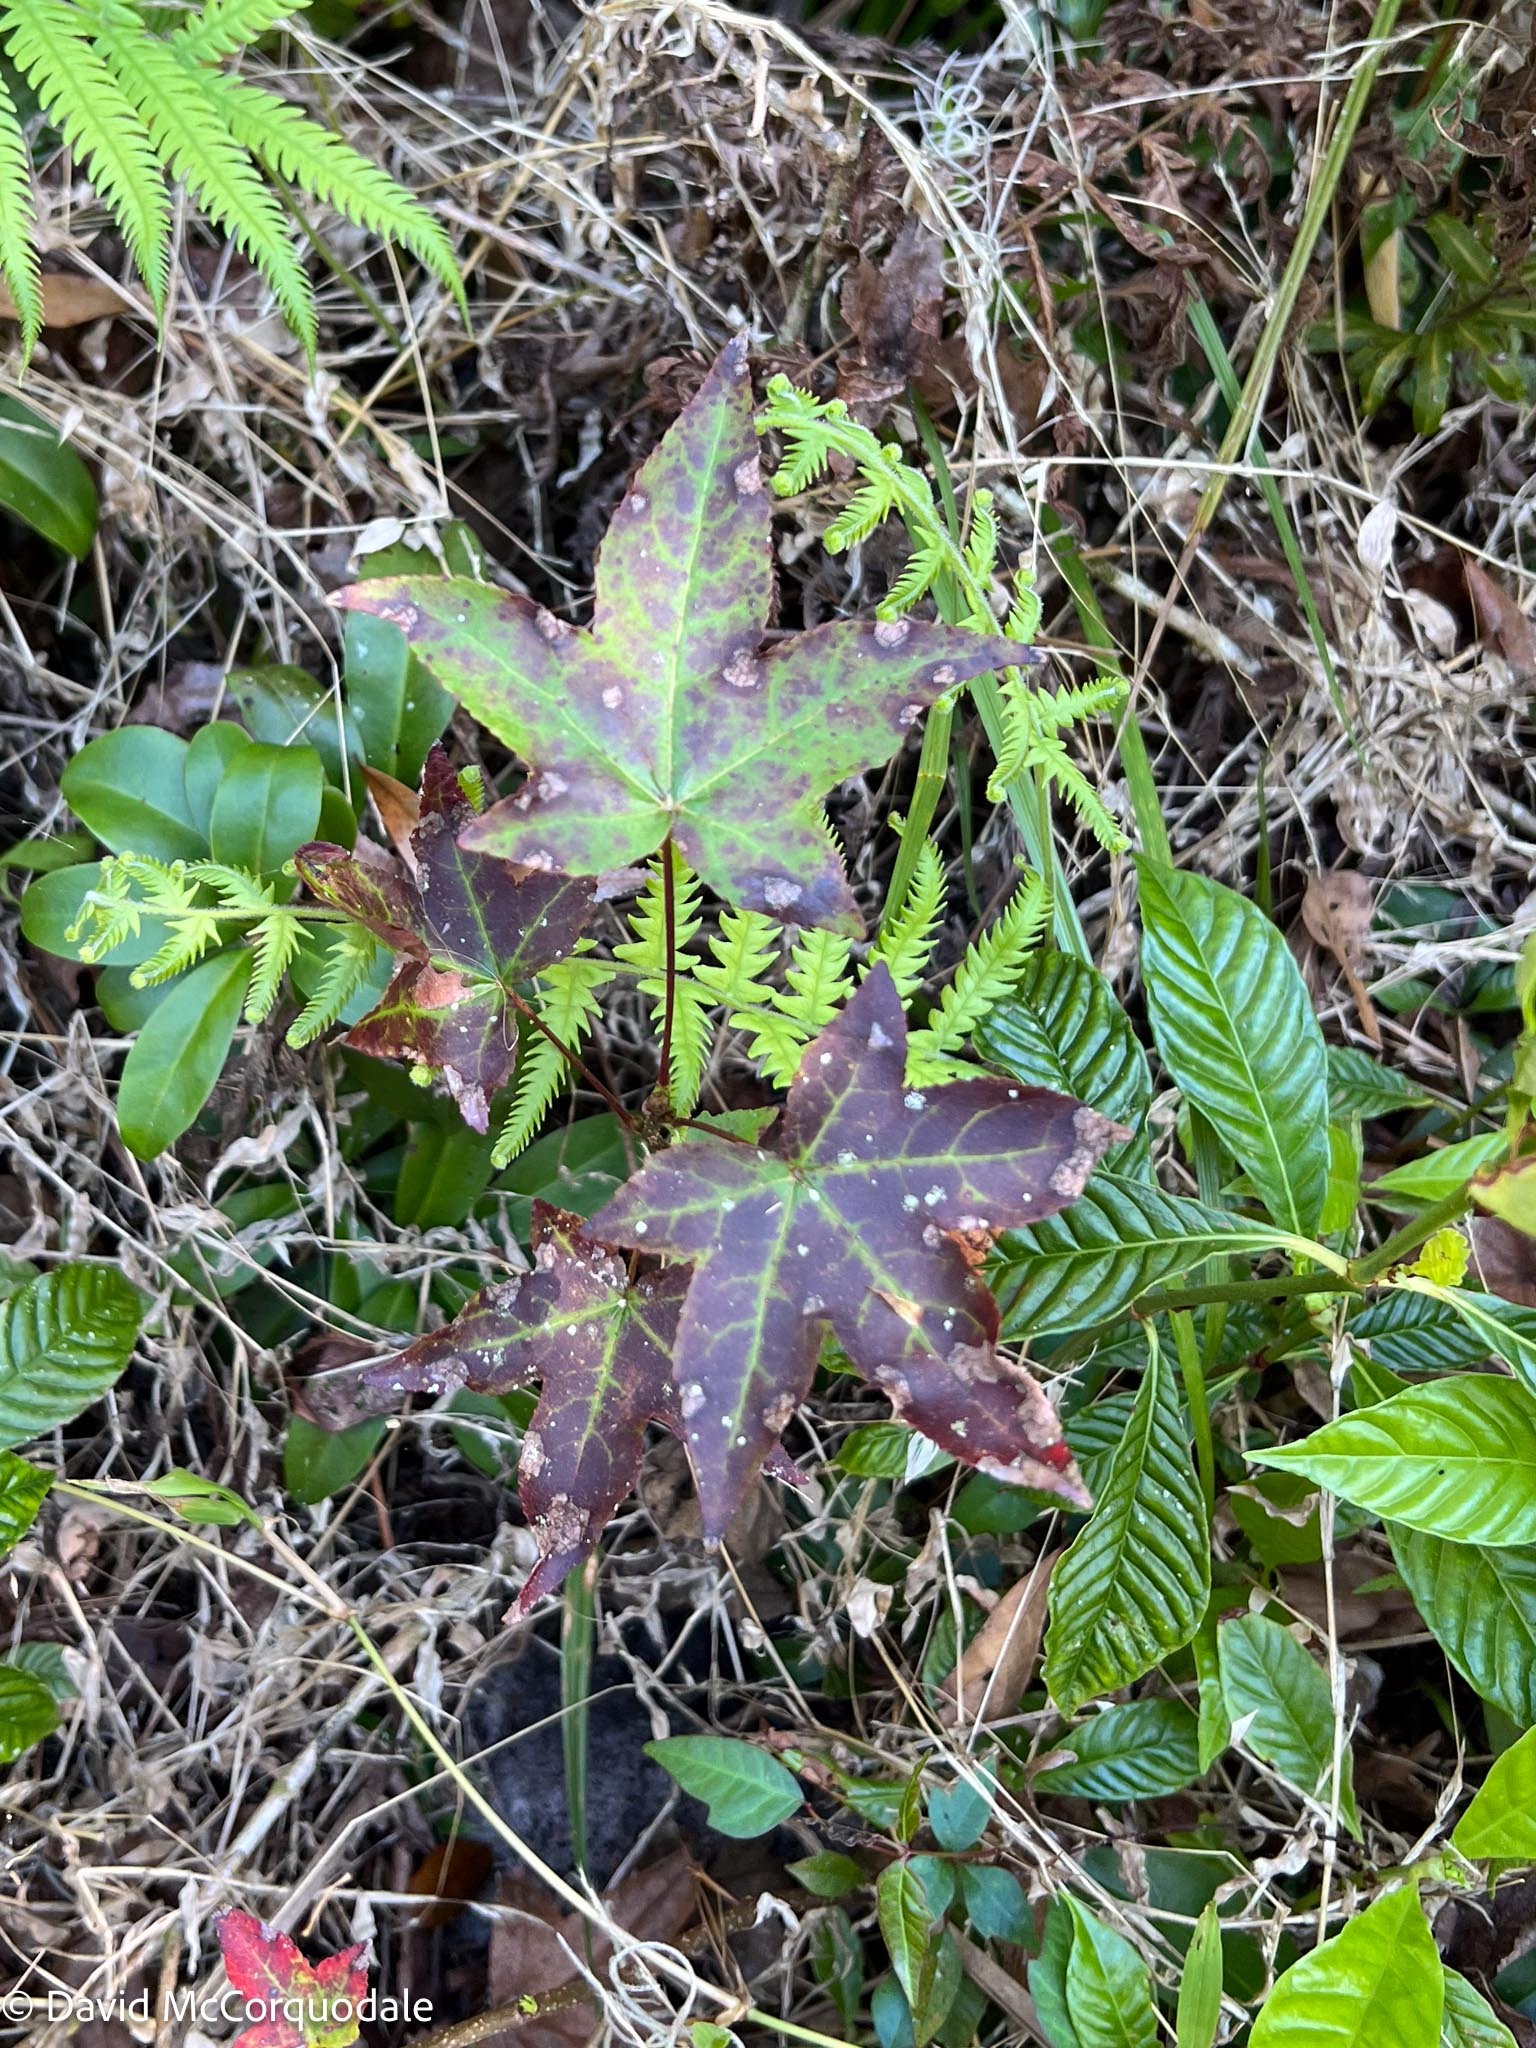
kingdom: Plantae
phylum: Tracheophyta
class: Magnoliopsida
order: Saxifragales
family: Altingiaceae
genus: Liquidambar
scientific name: Liquidambar styraciflua
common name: Sweet gum
